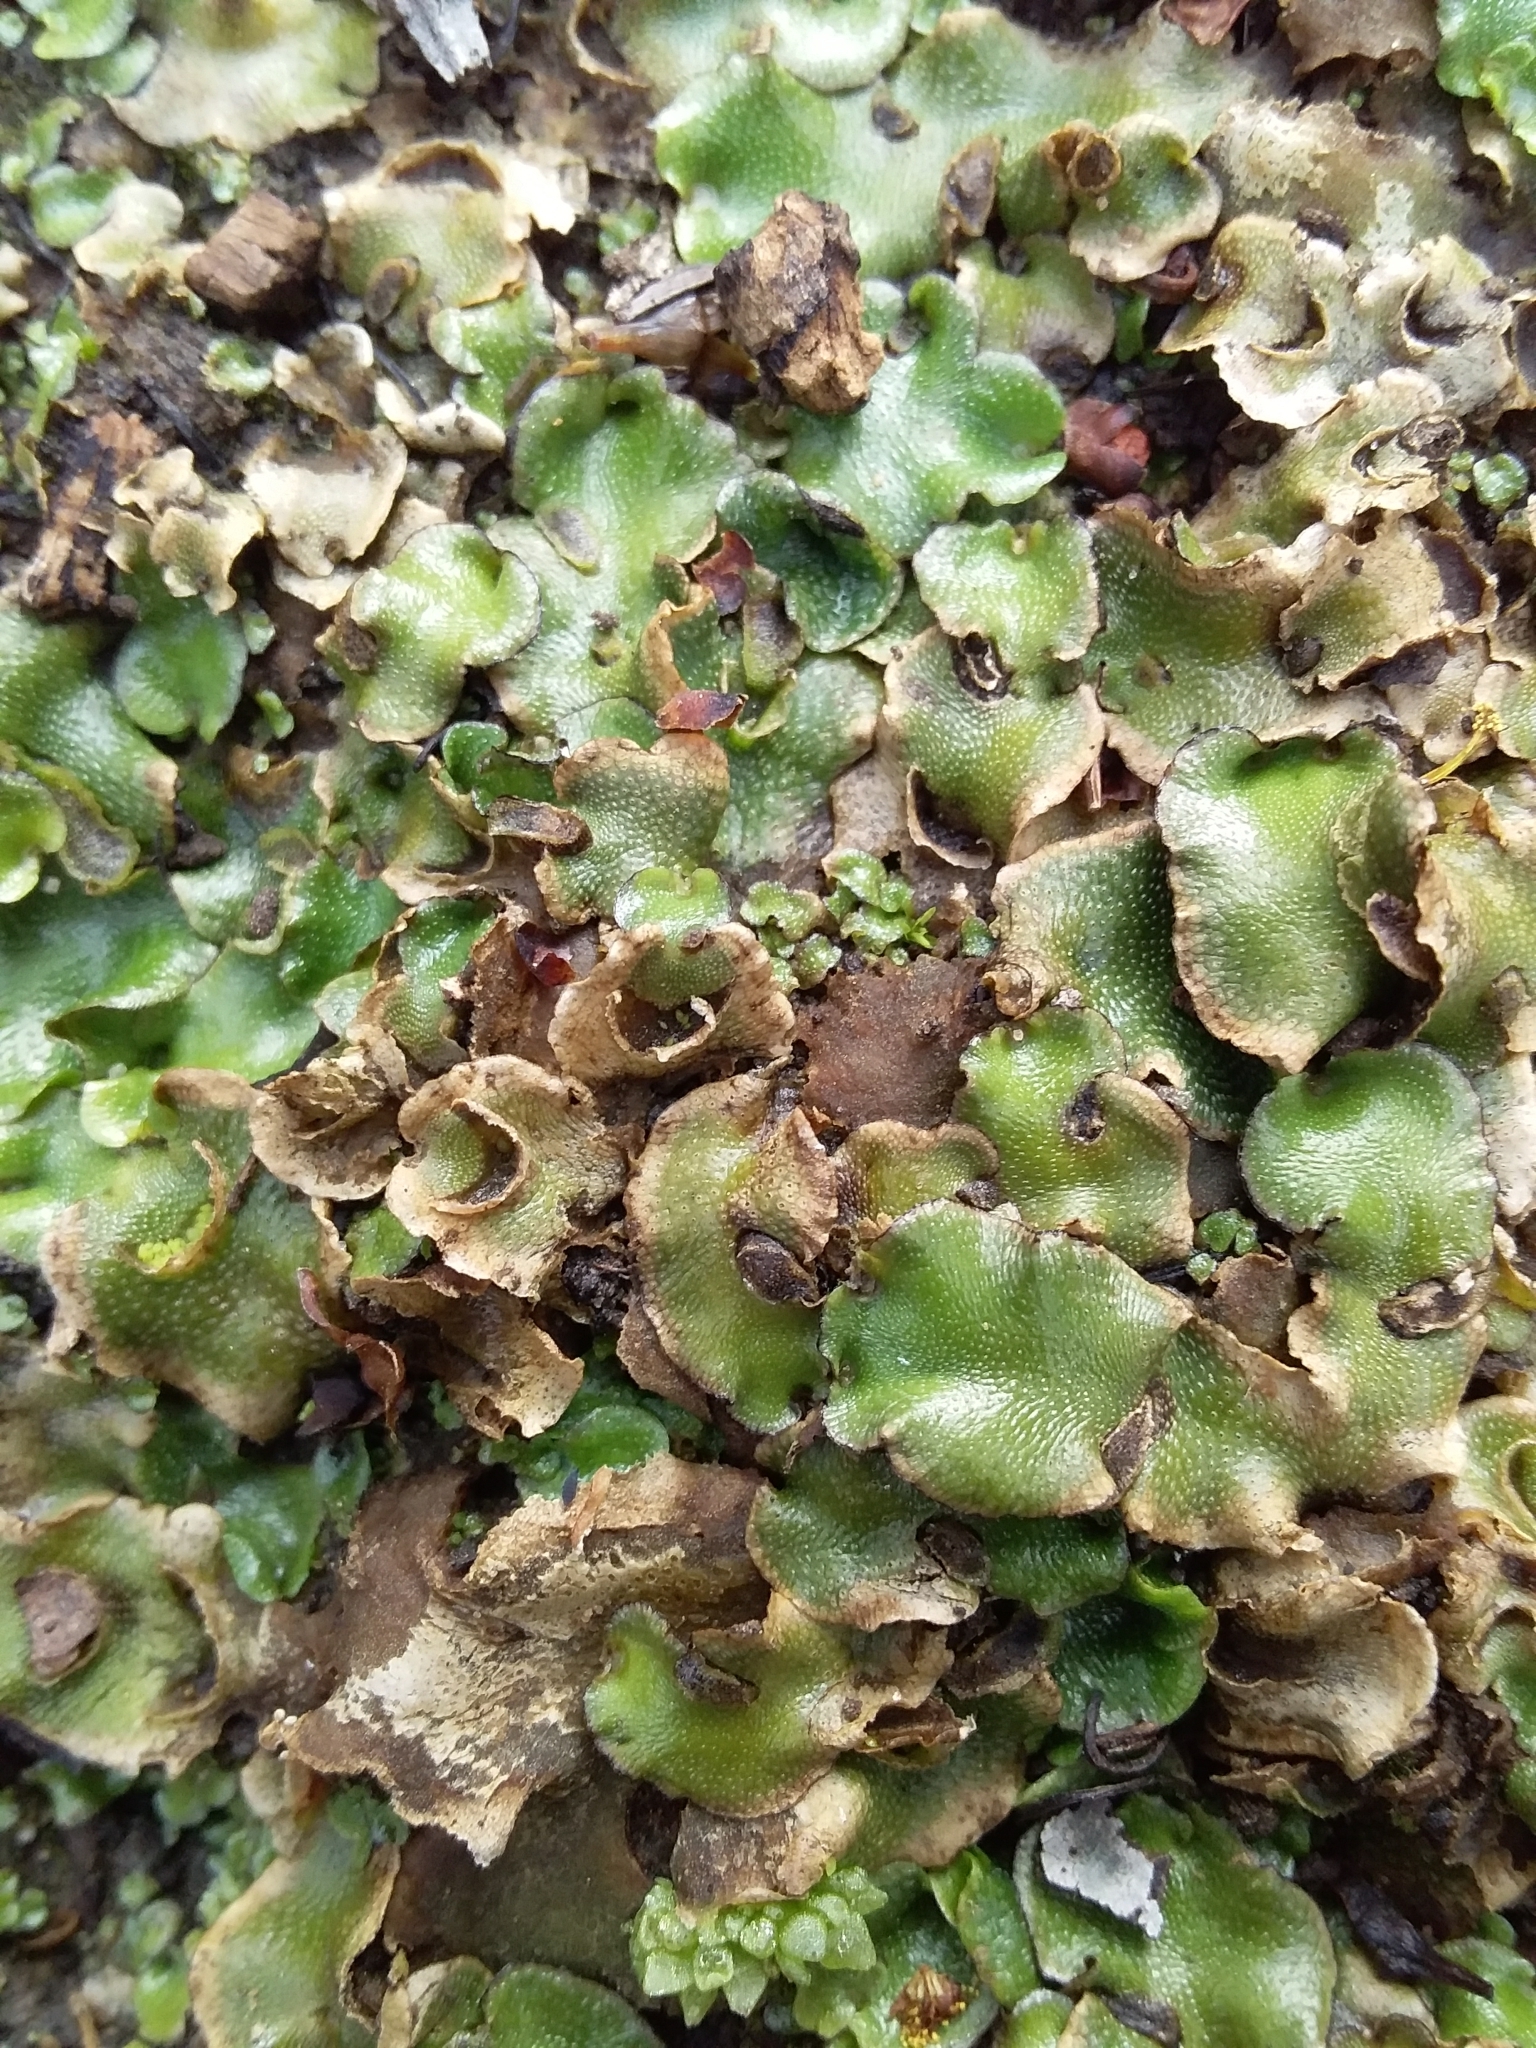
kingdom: Plantae
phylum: Marchantiophyta
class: Marchantiopsida
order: Lunulariales
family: Lunulariaceae
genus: Lunularia
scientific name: Lunularia cruciata
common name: Crescent-cup liverwort
